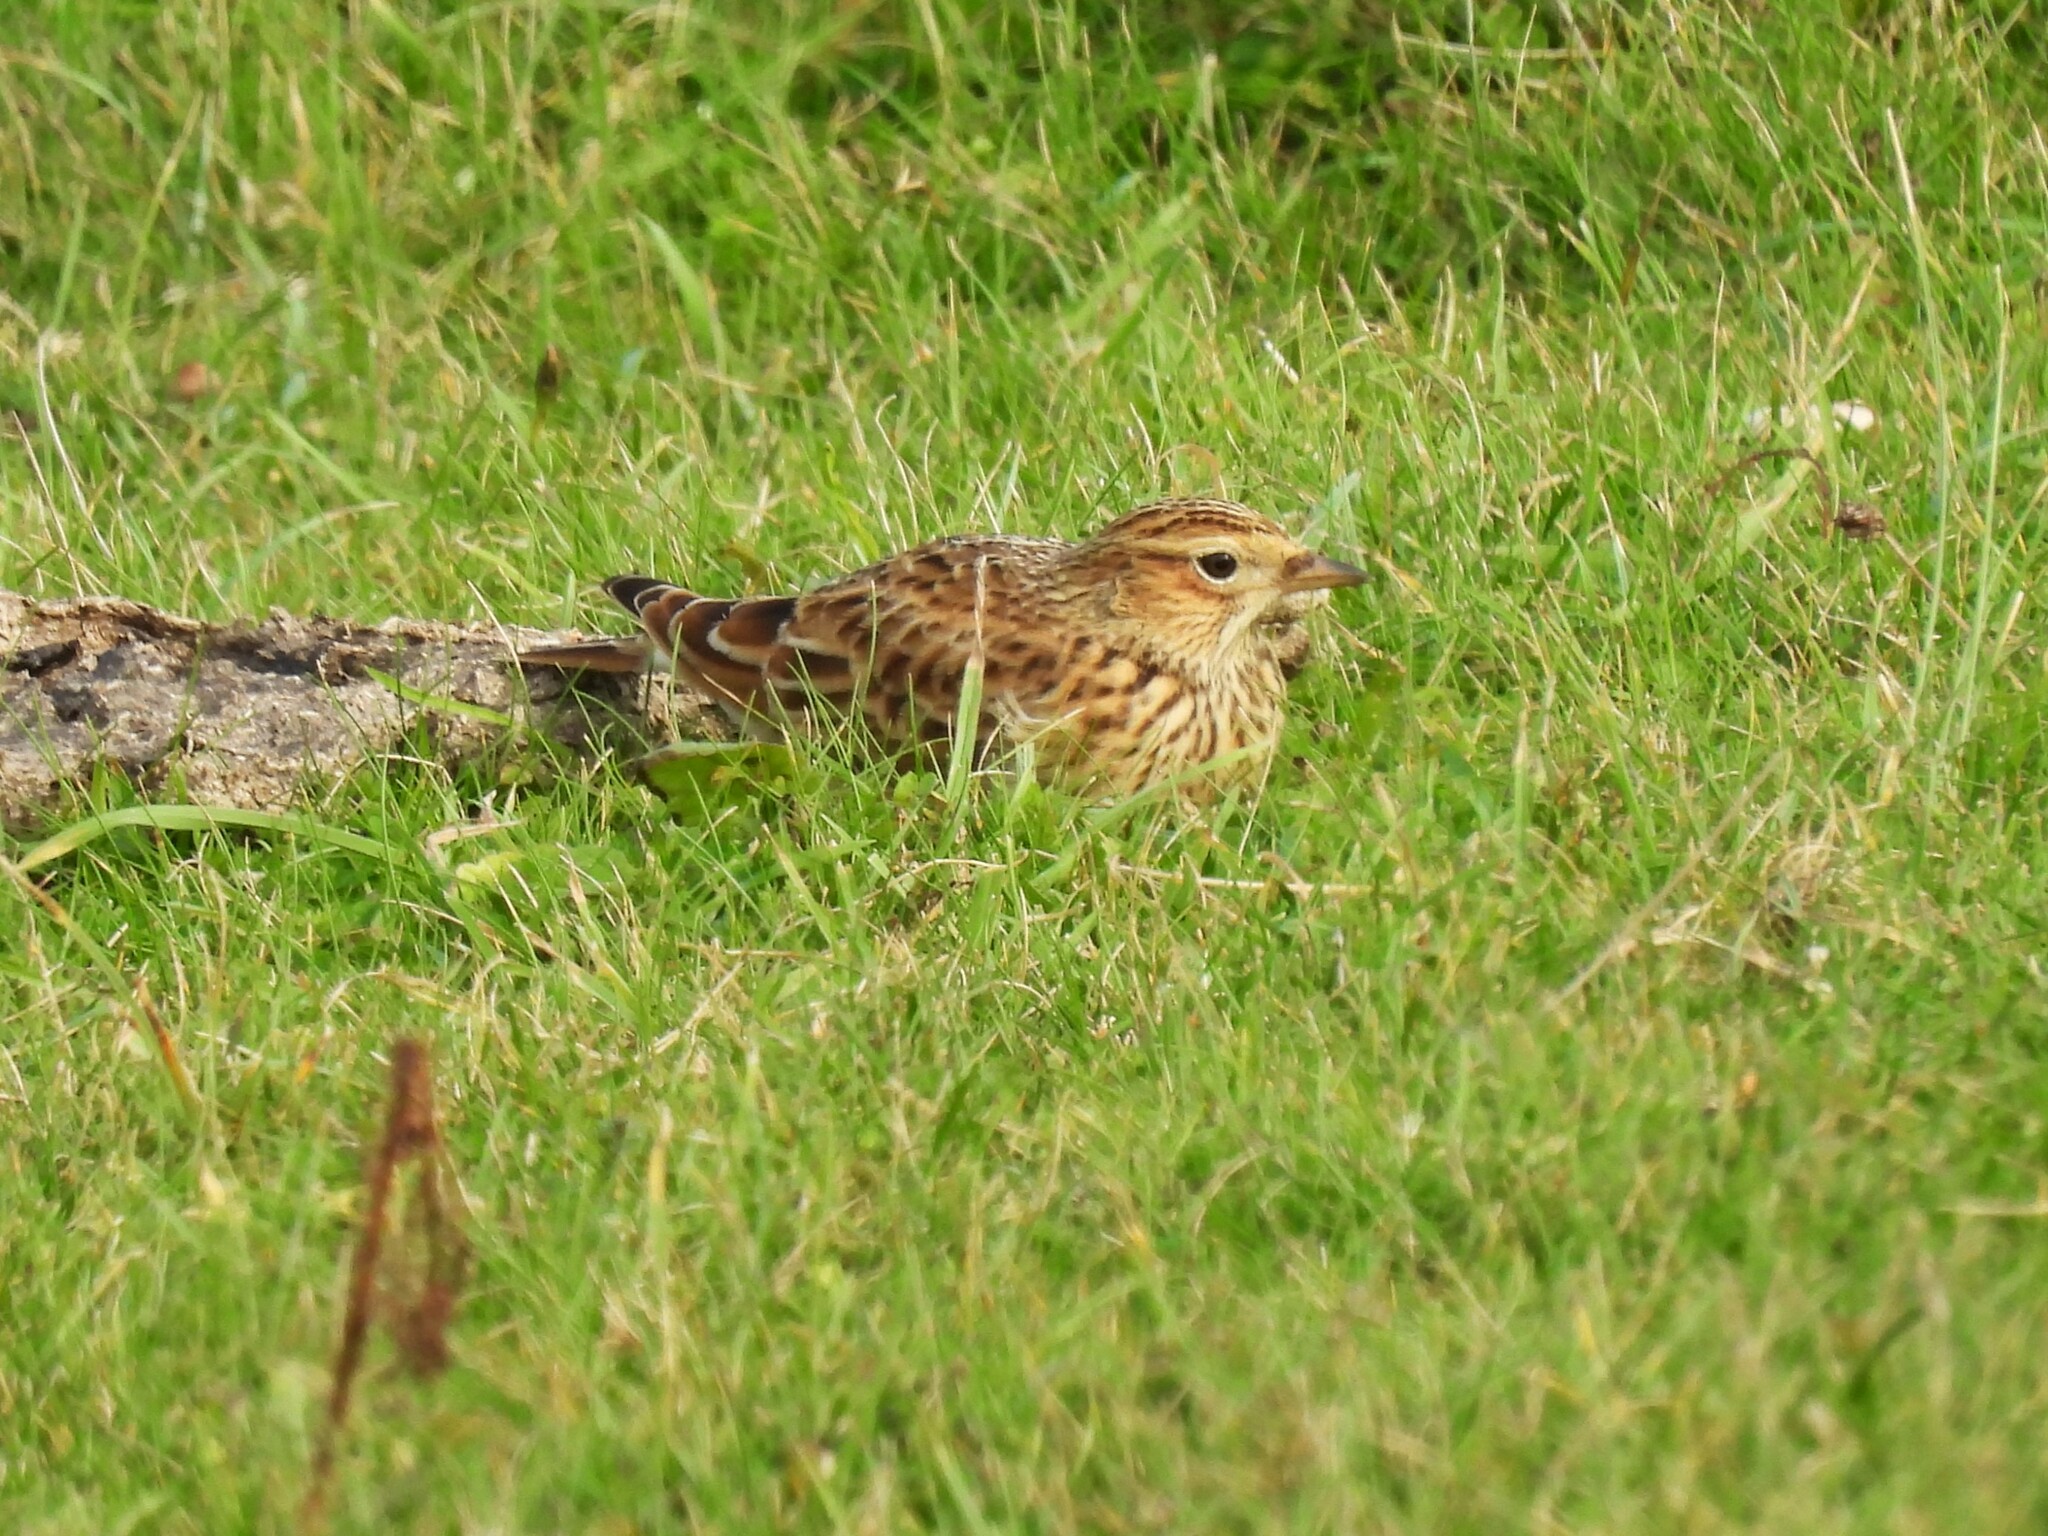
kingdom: Animalia
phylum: Chordata
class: Aves
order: Passeriformes
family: Alaudidae
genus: Alauda
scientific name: Alauda arvensis
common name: Eurasian skylark
